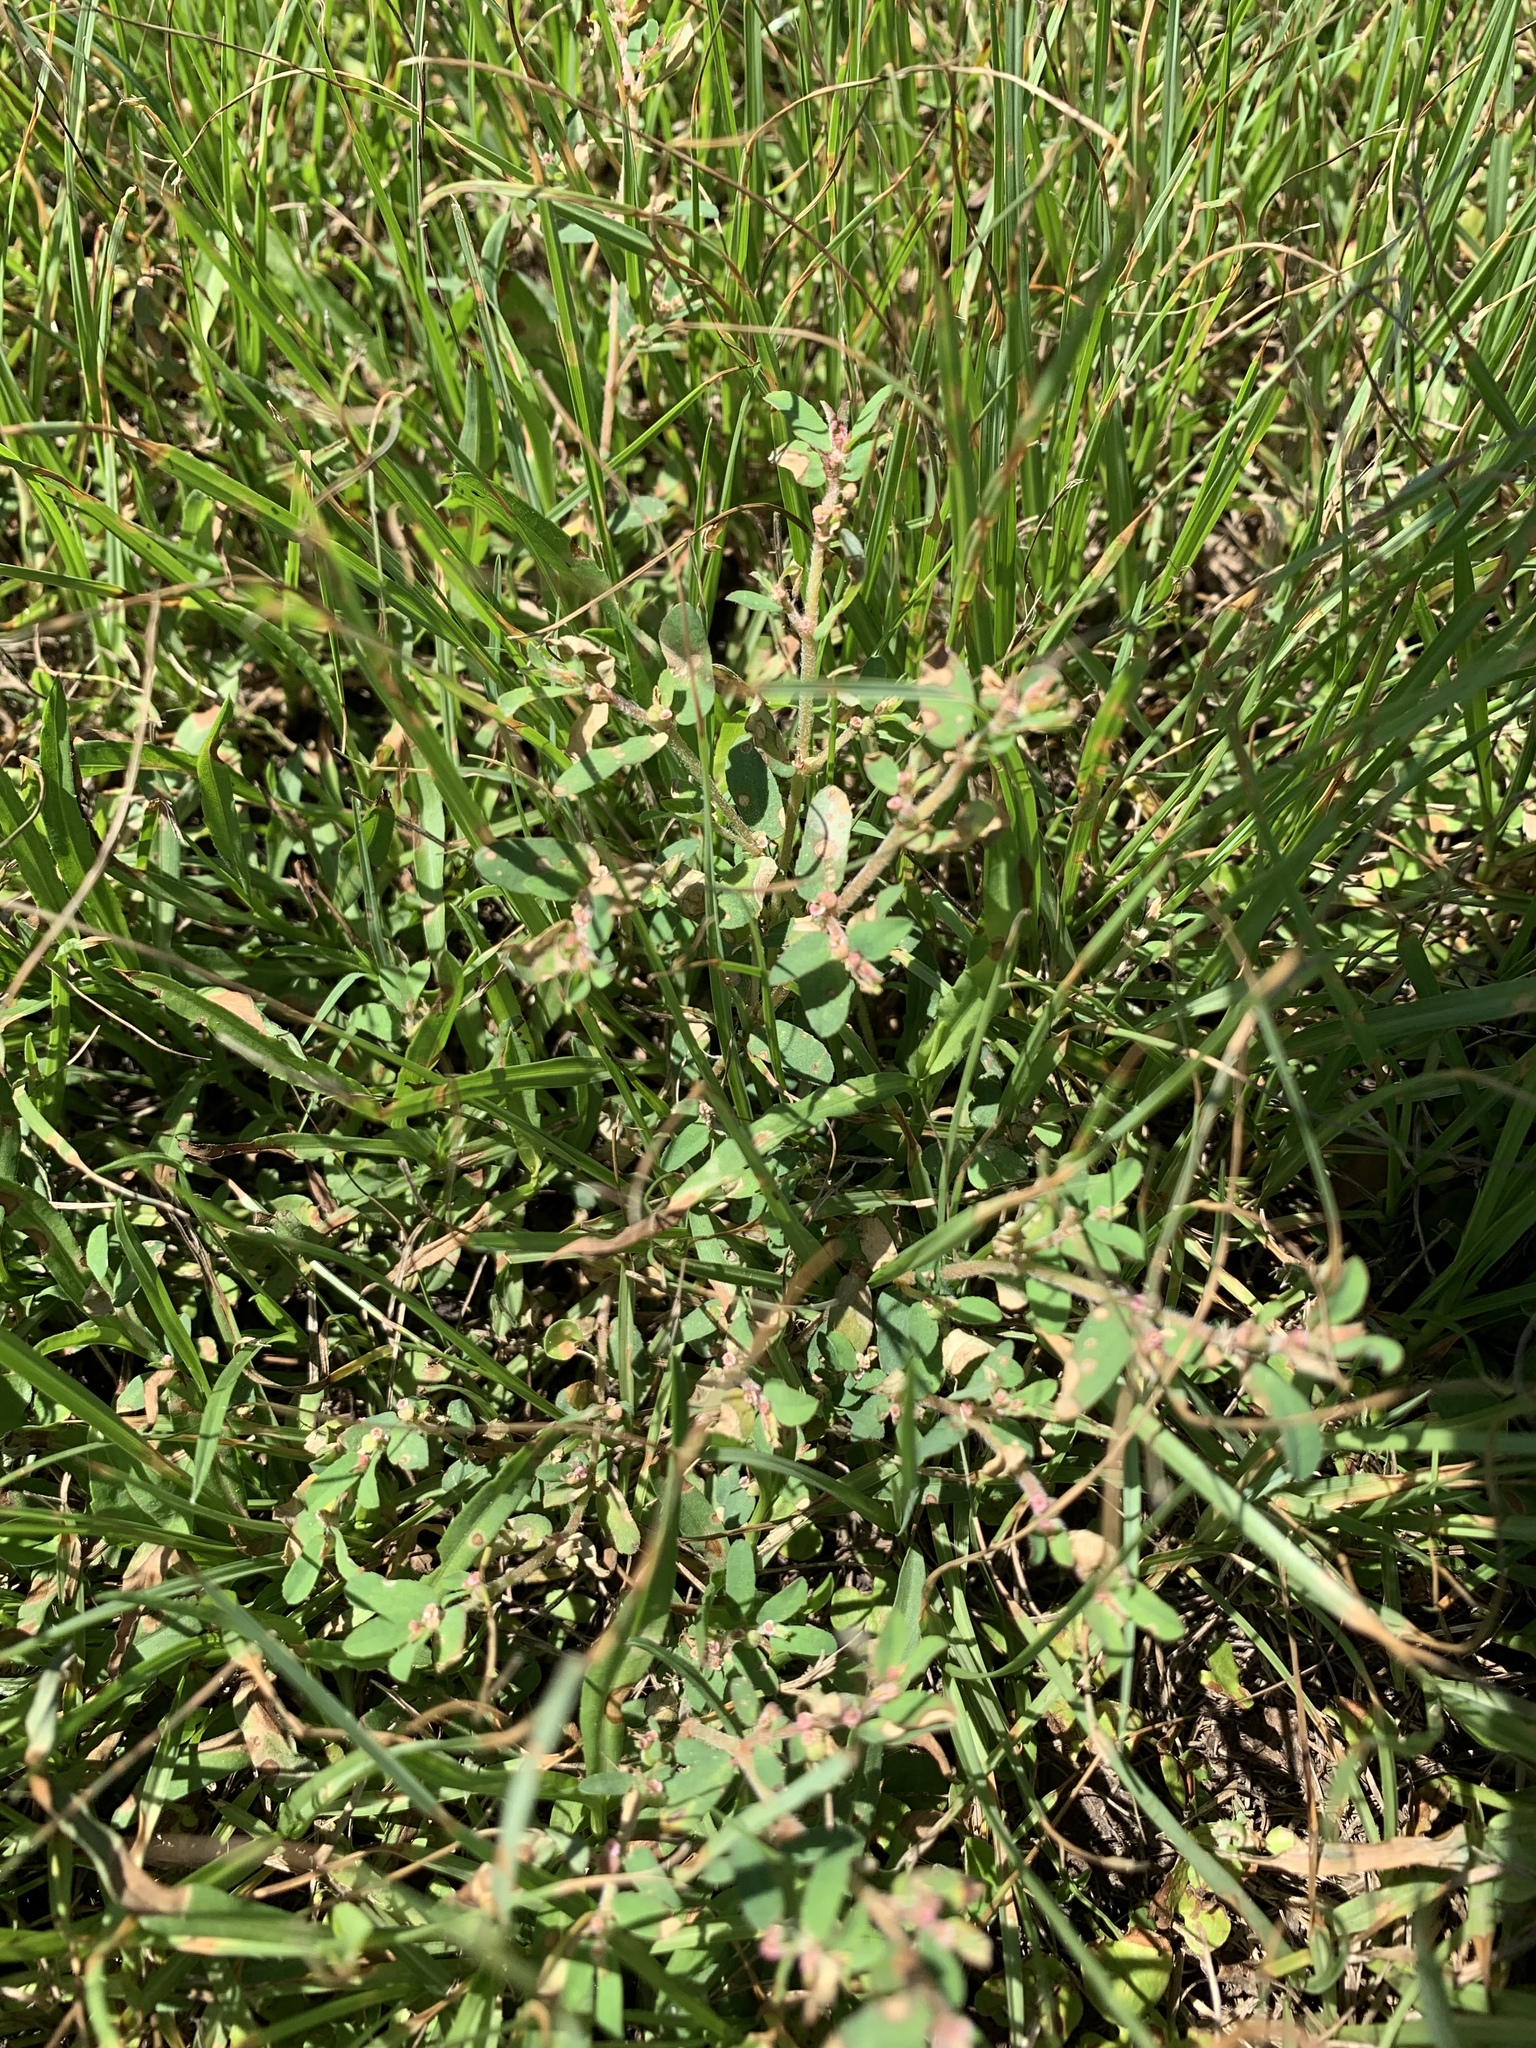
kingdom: Plantae
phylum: Tracheophyta
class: Magnoliopsida
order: Malpighiales
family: Euphorbiaceae
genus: Euphorbia
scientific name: Euphorbia maculata
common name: Spotted spurge
